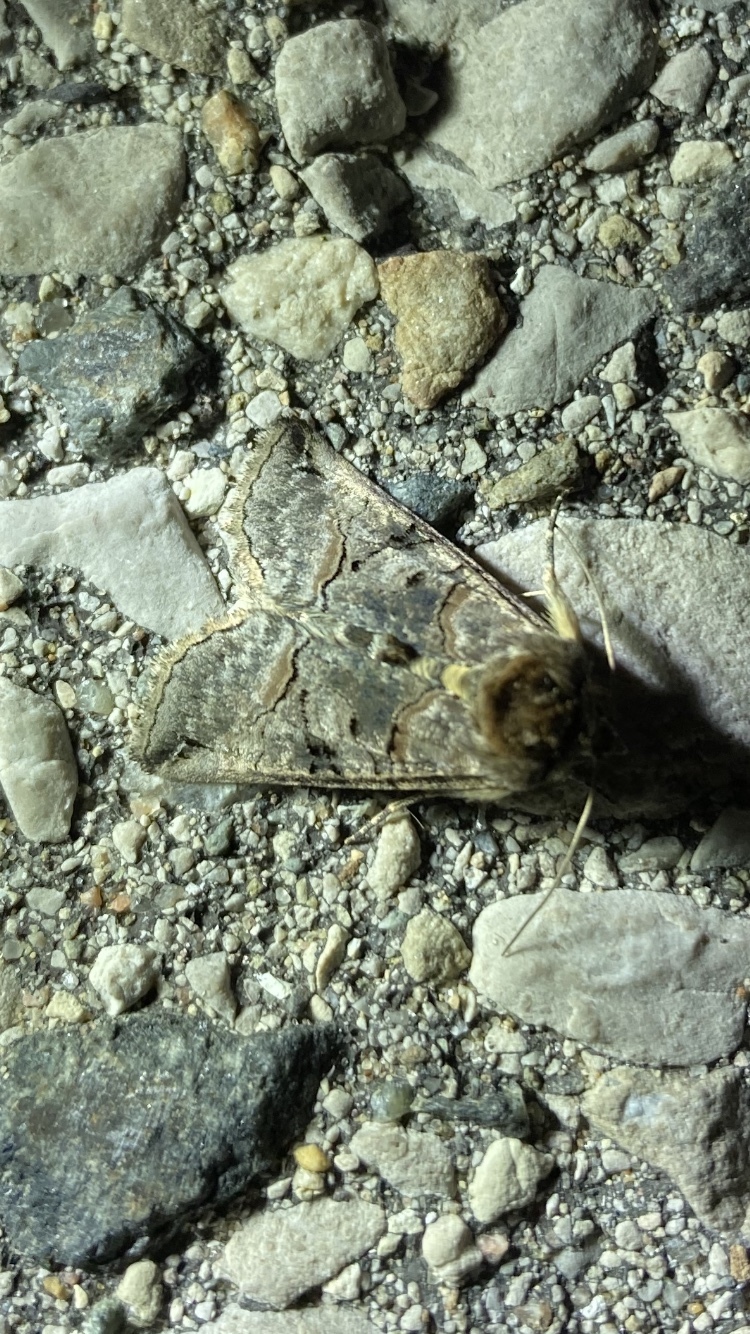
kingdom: Animalia
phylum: Arthropoda
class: Insecta
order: Lepidoptera
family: Noctuidae
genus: Abrostola
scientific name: Abrostola urentis
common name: Spectacled nettle moth
